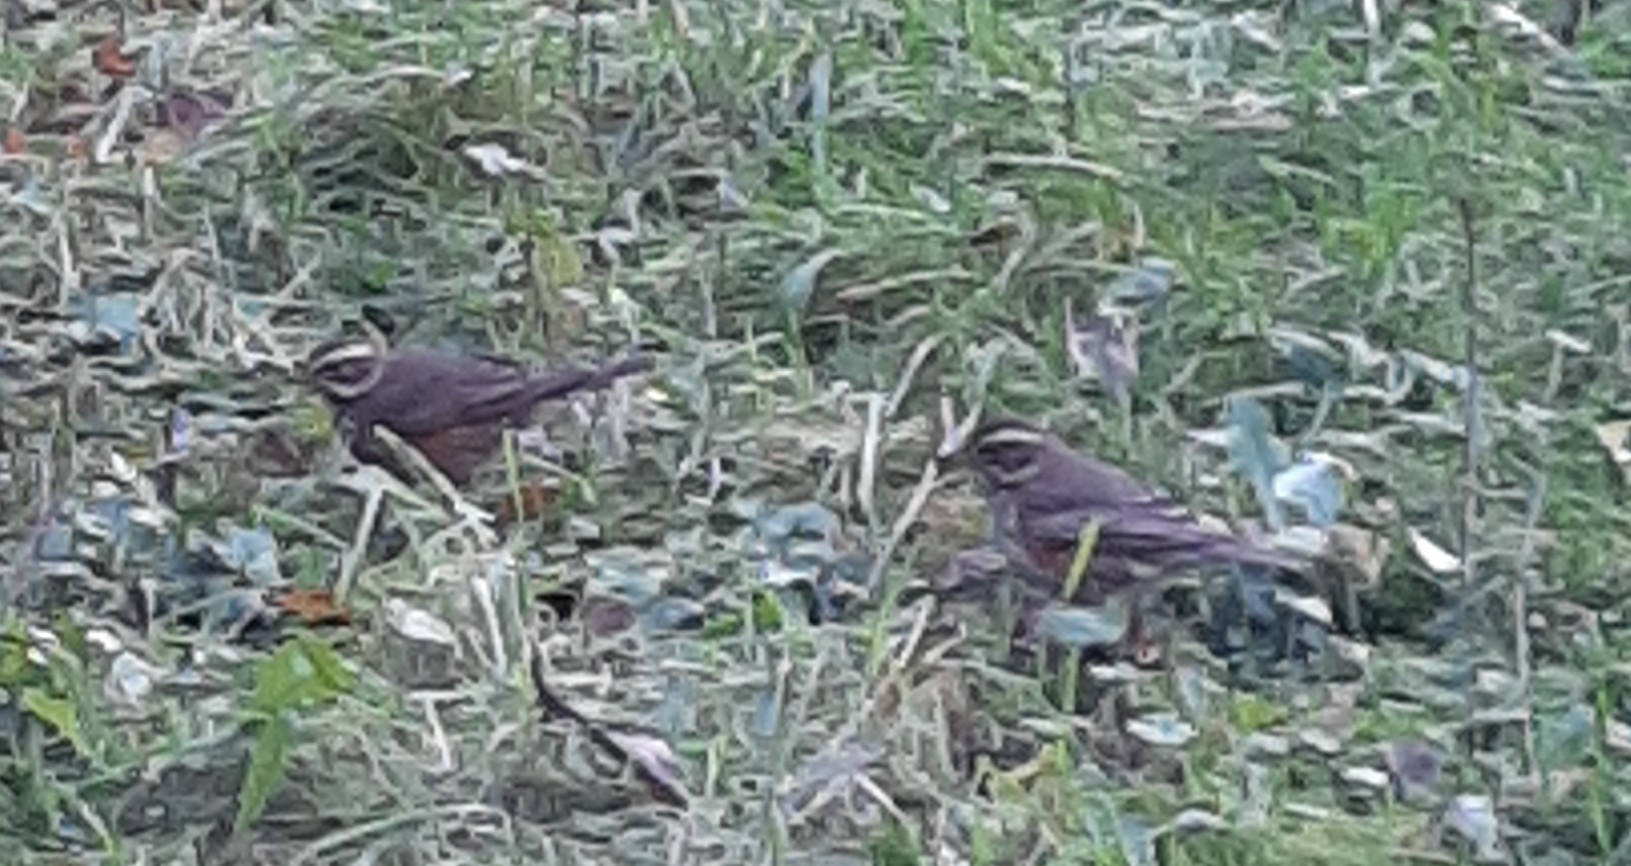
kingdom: Animalia
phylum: Chordata
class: Aves
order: Passeriformes
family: Turdidae
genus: Turdus
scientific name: Turdus iliacus
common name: Redwing
